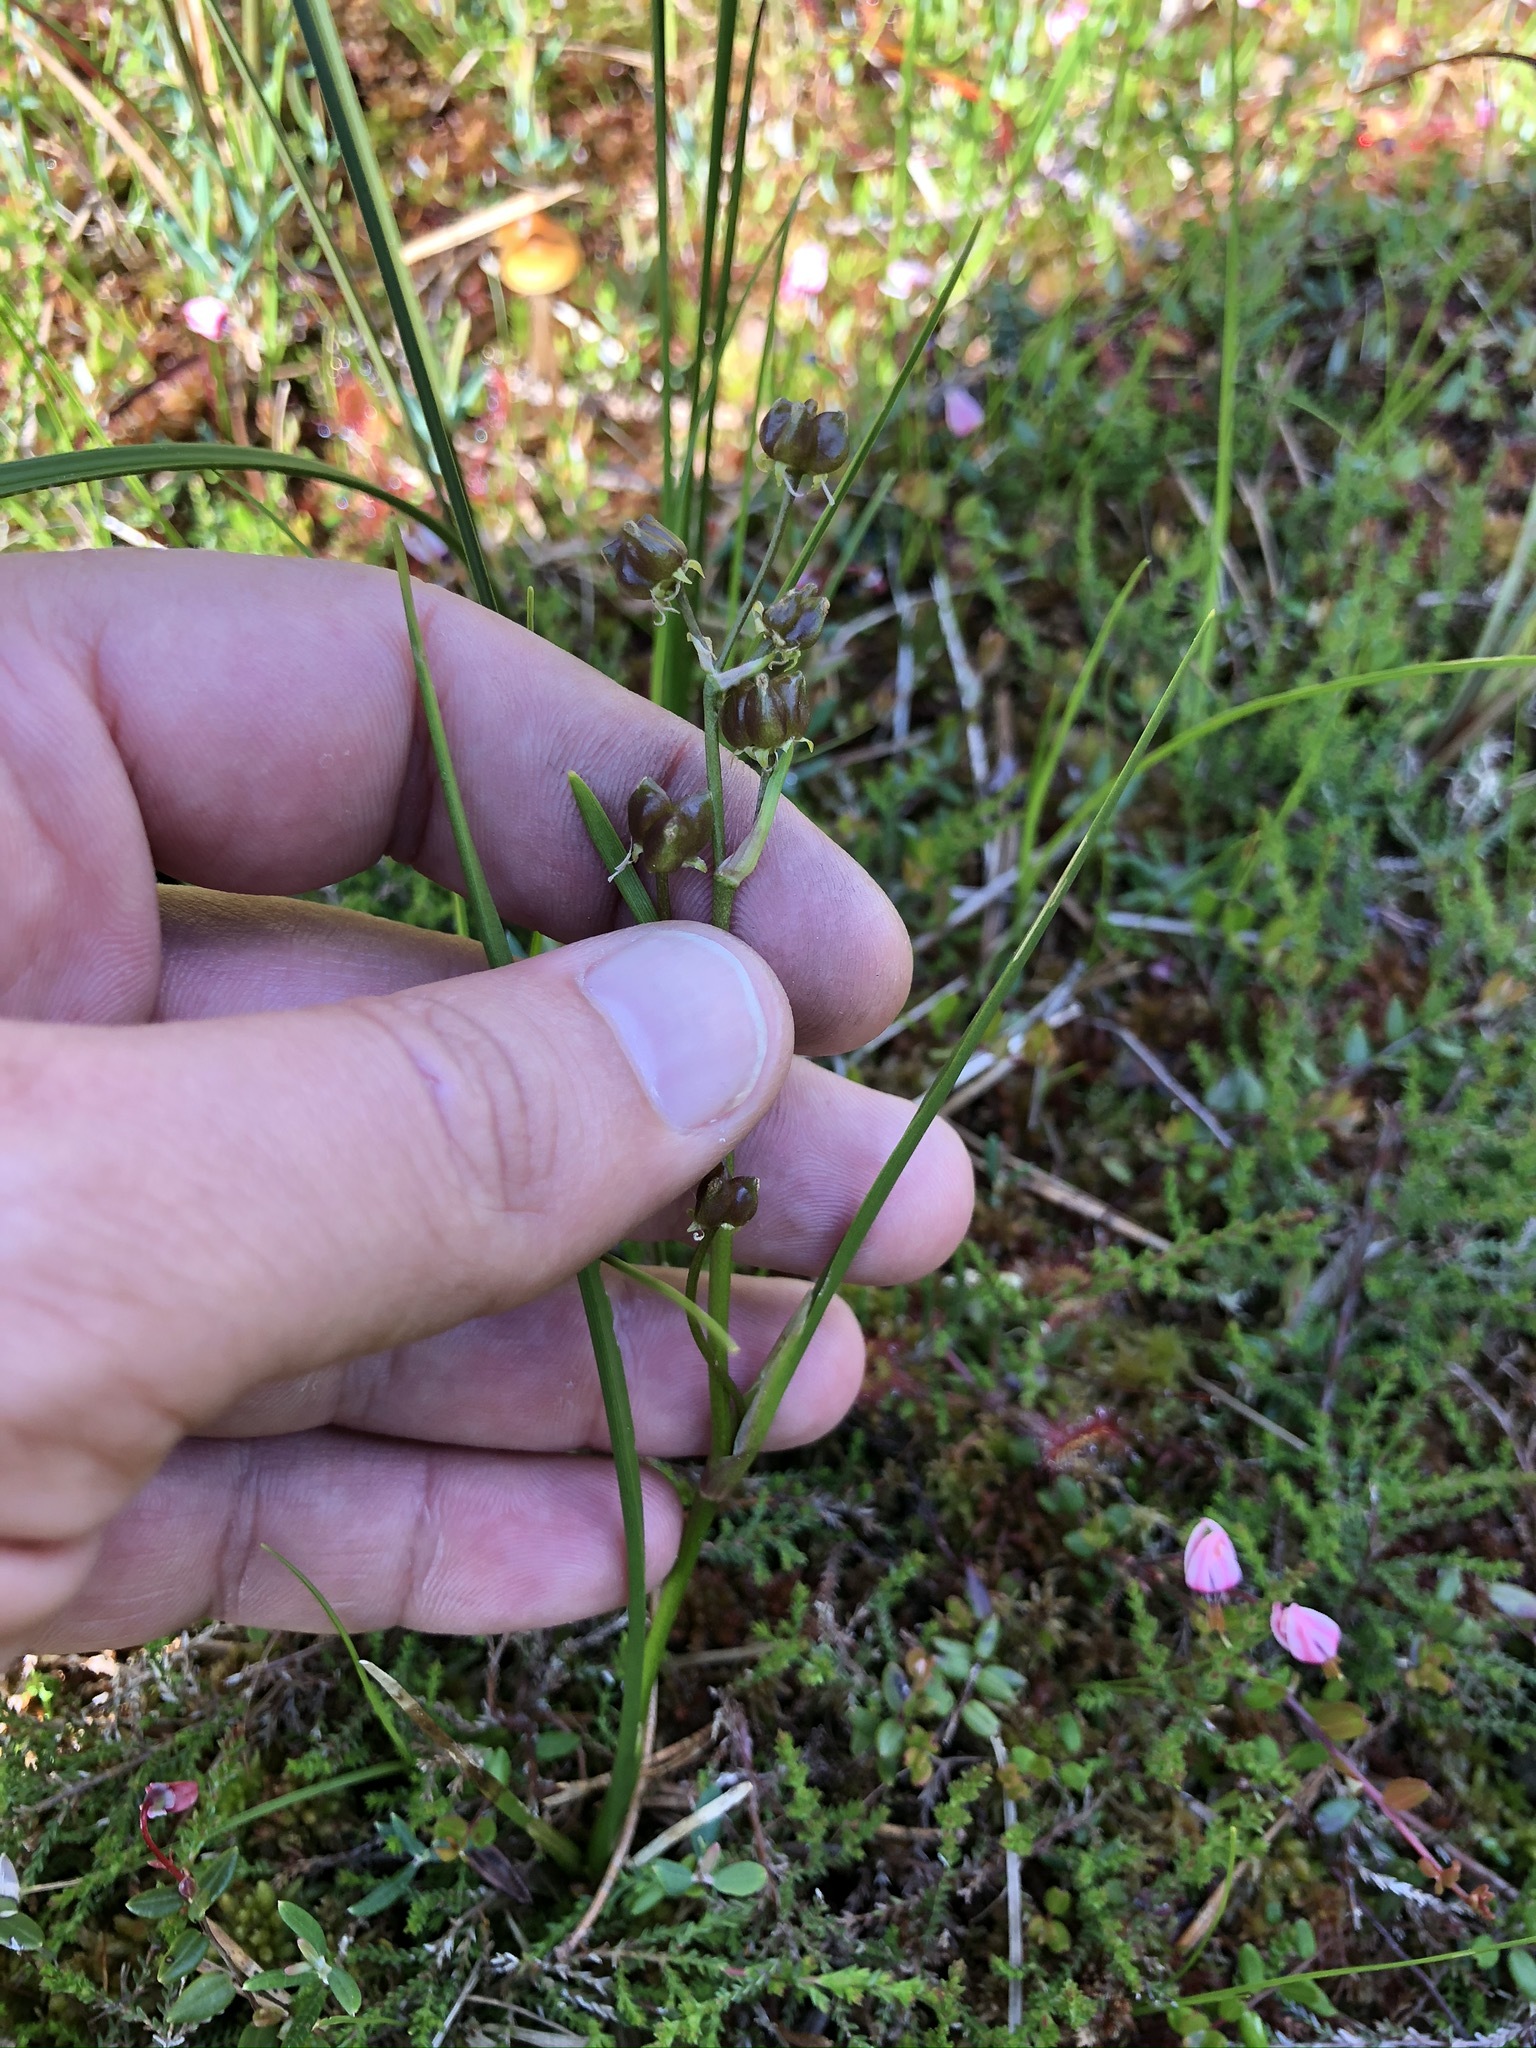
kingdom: Plantae
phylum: Tracheophyta
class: Liliopsida
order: Alismatales
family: Scheuchzeriaceae
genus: Scheuchzeria
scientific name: Scheuchzeria palustris
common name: Rannoch-rush
